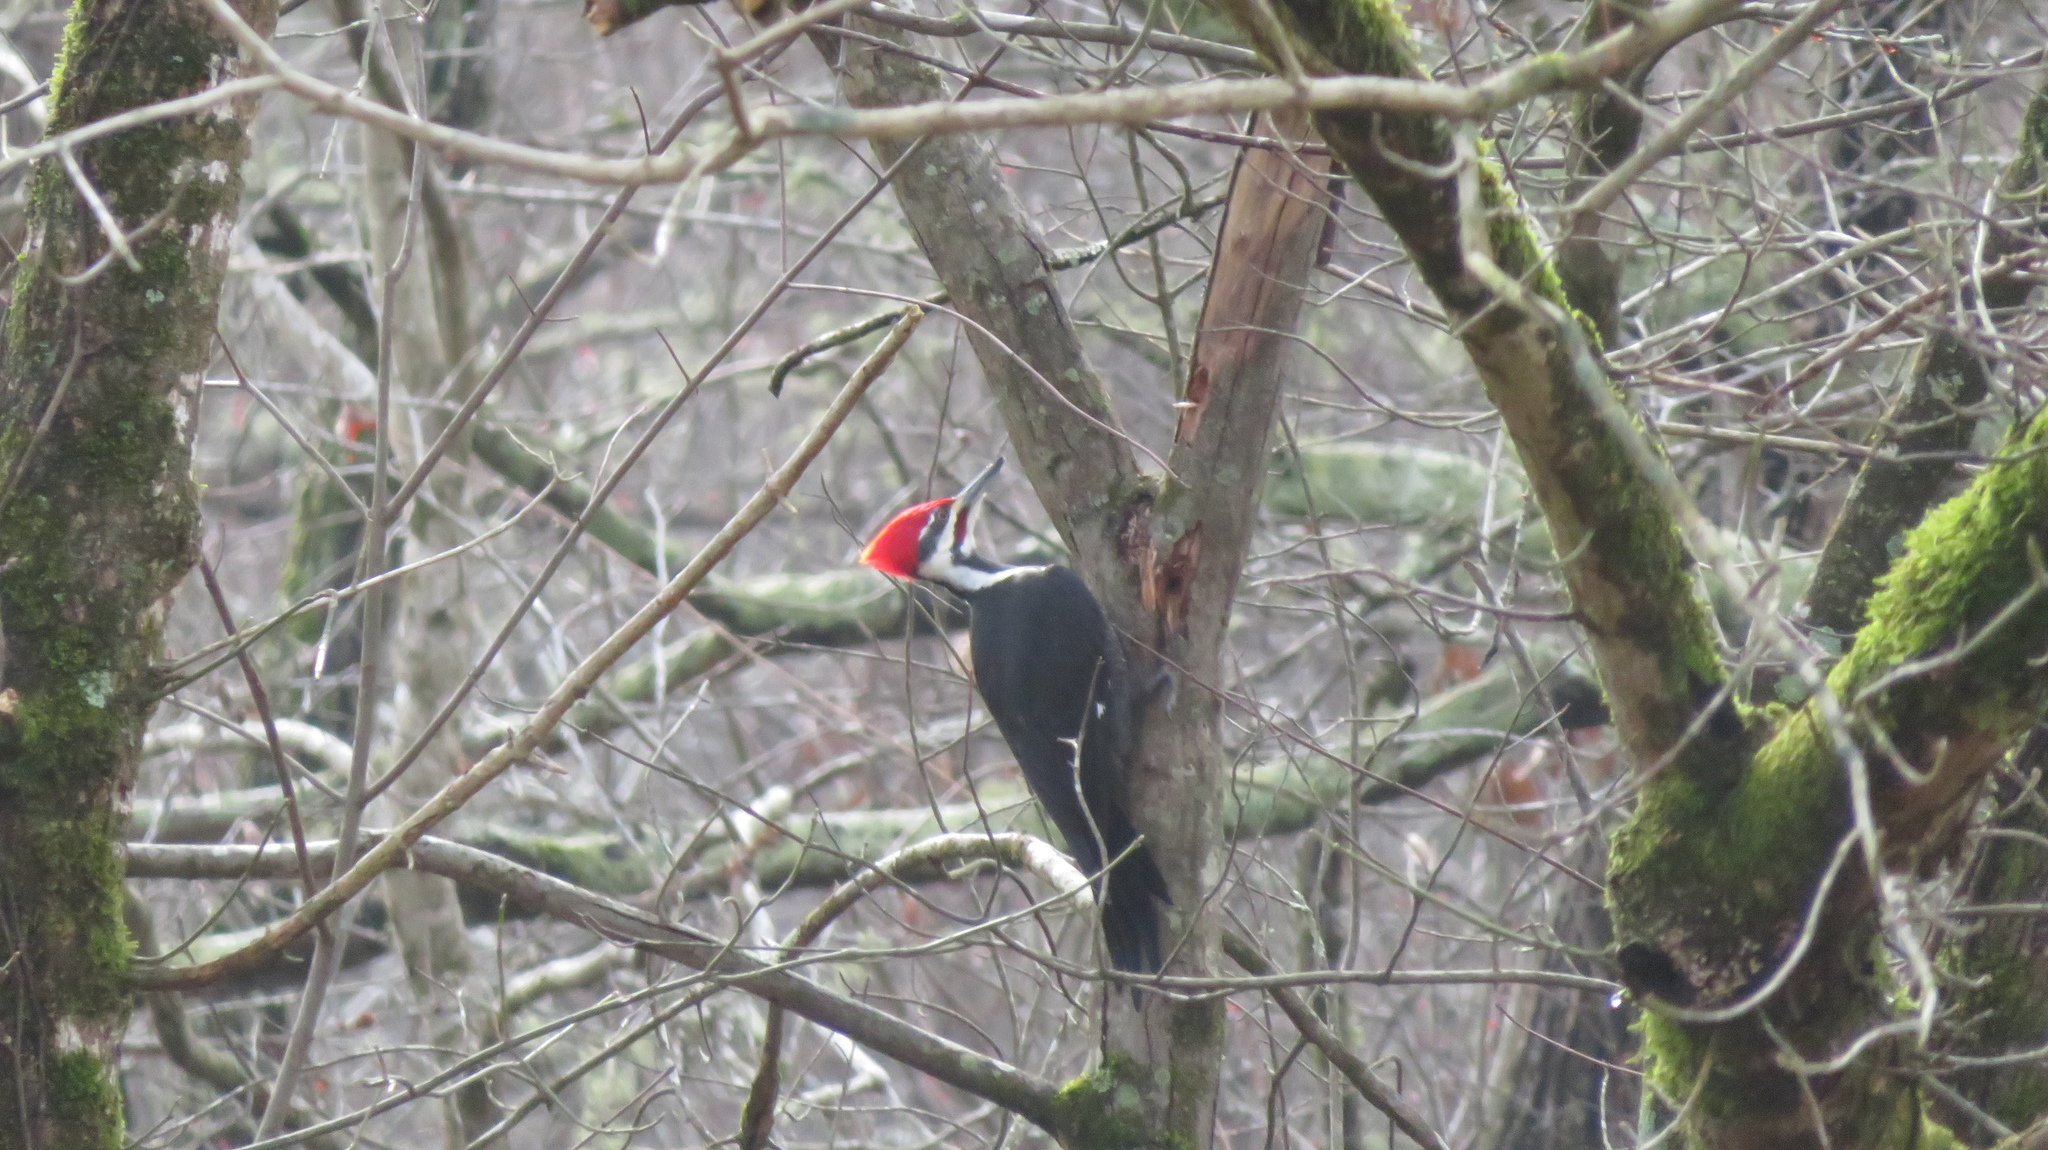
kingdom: Animalia
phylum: Chordata
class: Aves
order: Piciformes
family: Picidae
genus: Dryocopus
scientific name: Dryocopus pileatus
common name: Pileated woodpecker
